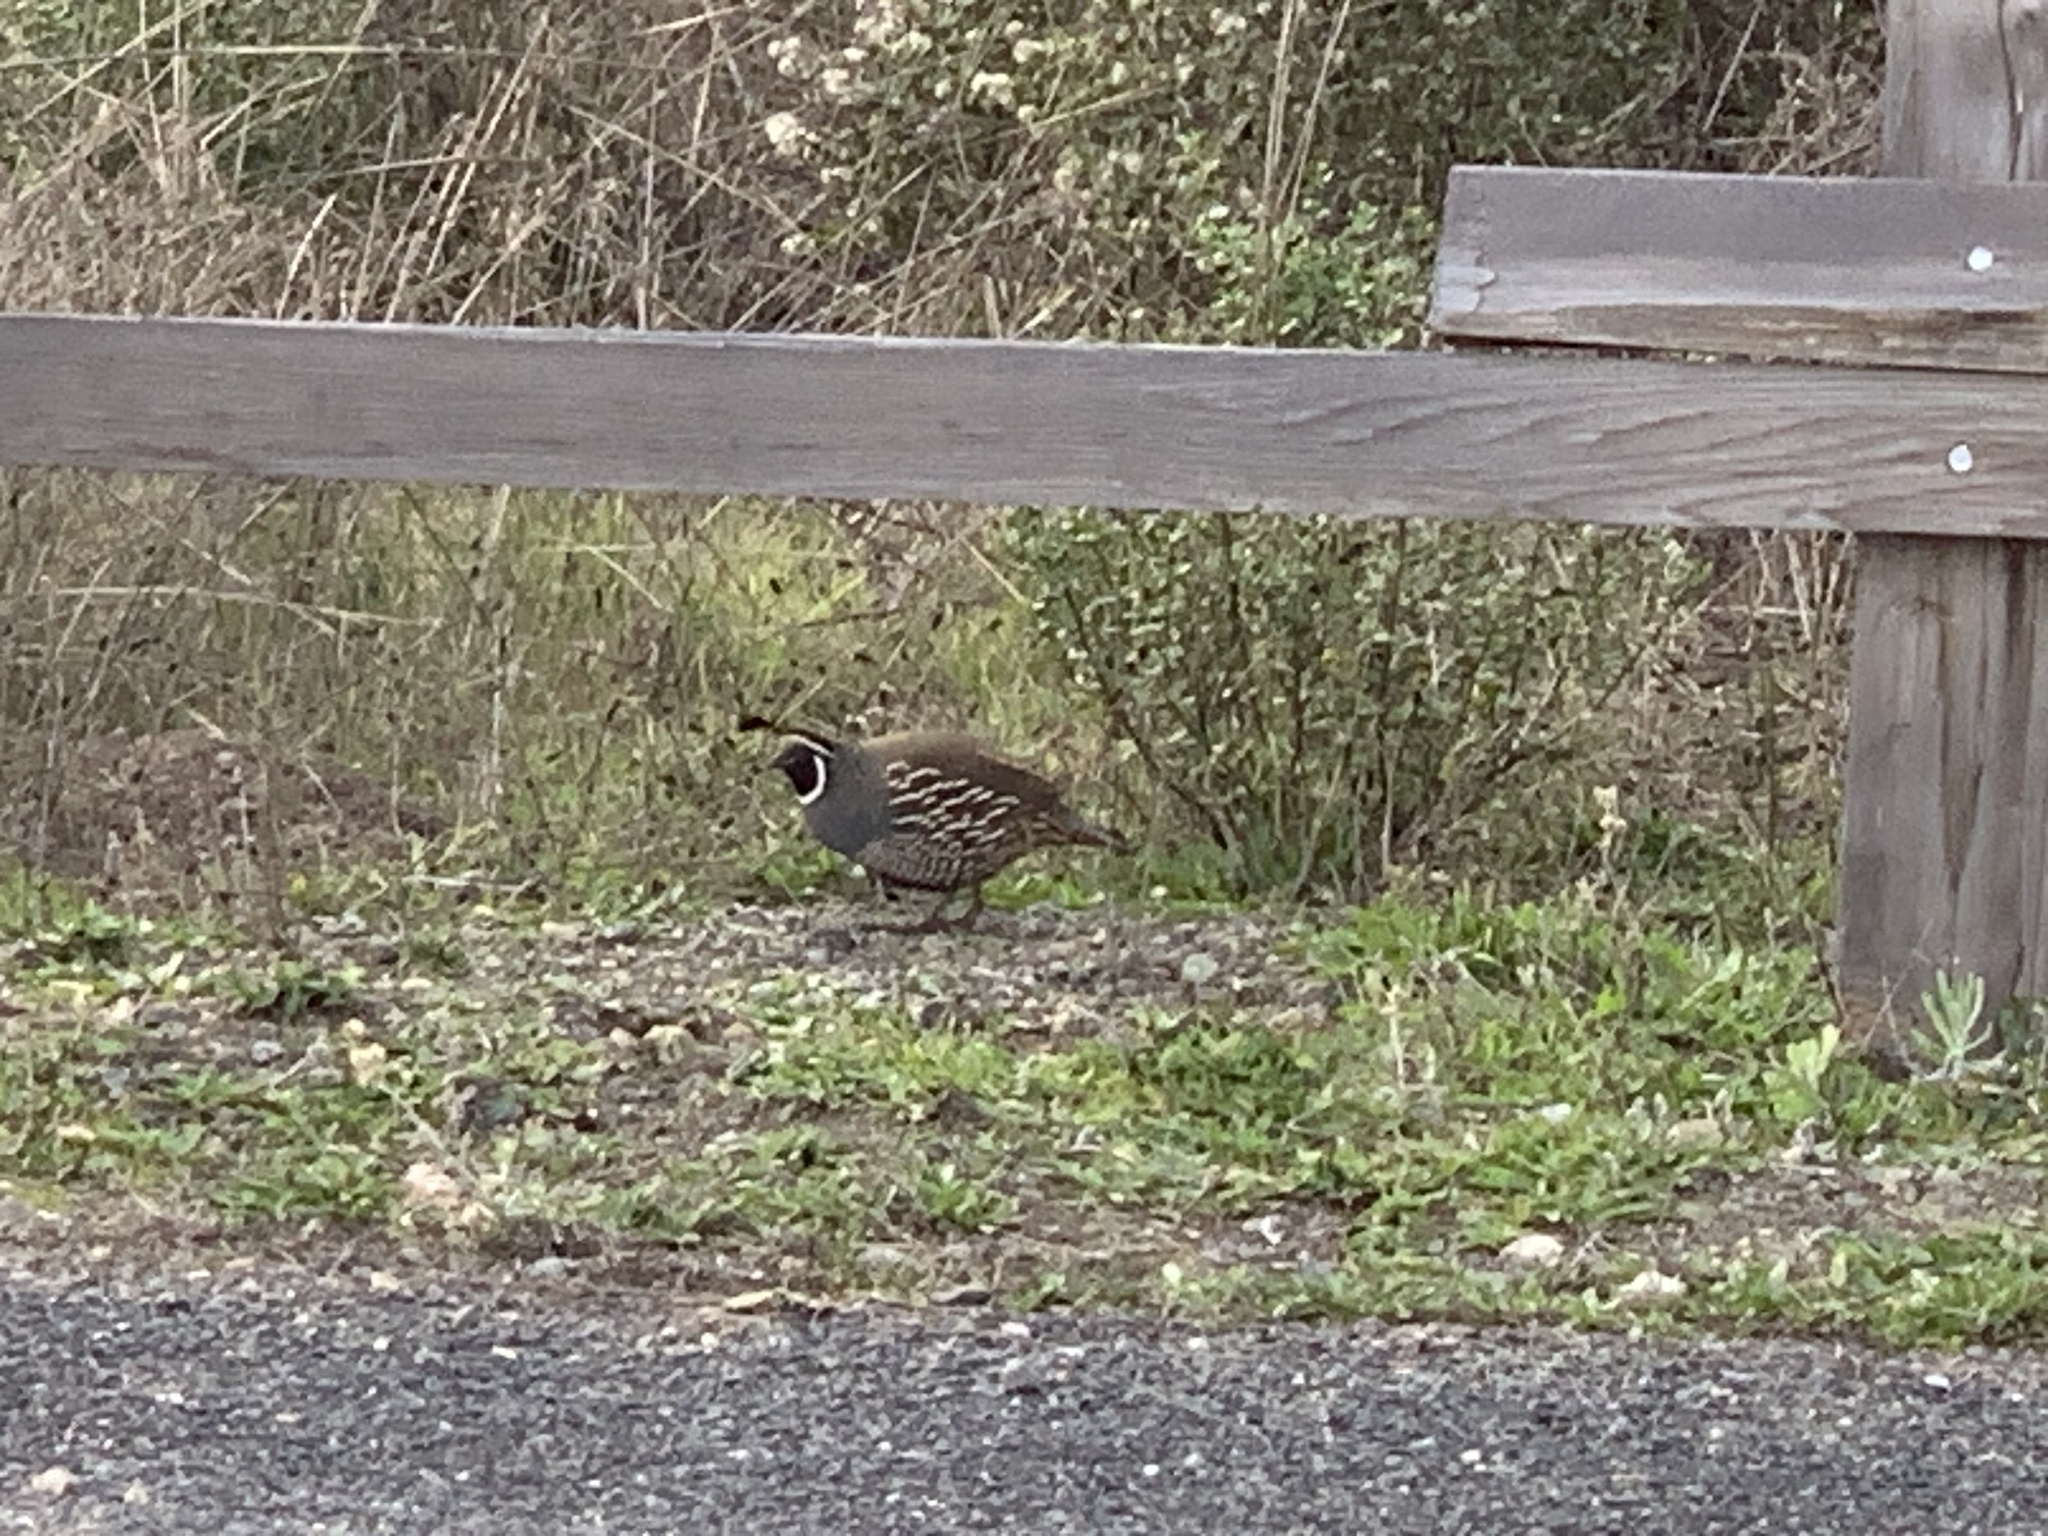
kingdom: Animalia
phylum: Chordata
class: Aves
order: Galliformes
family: Odontophoridae
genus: Callipepla
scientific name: Callipepla californica
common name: California quail
